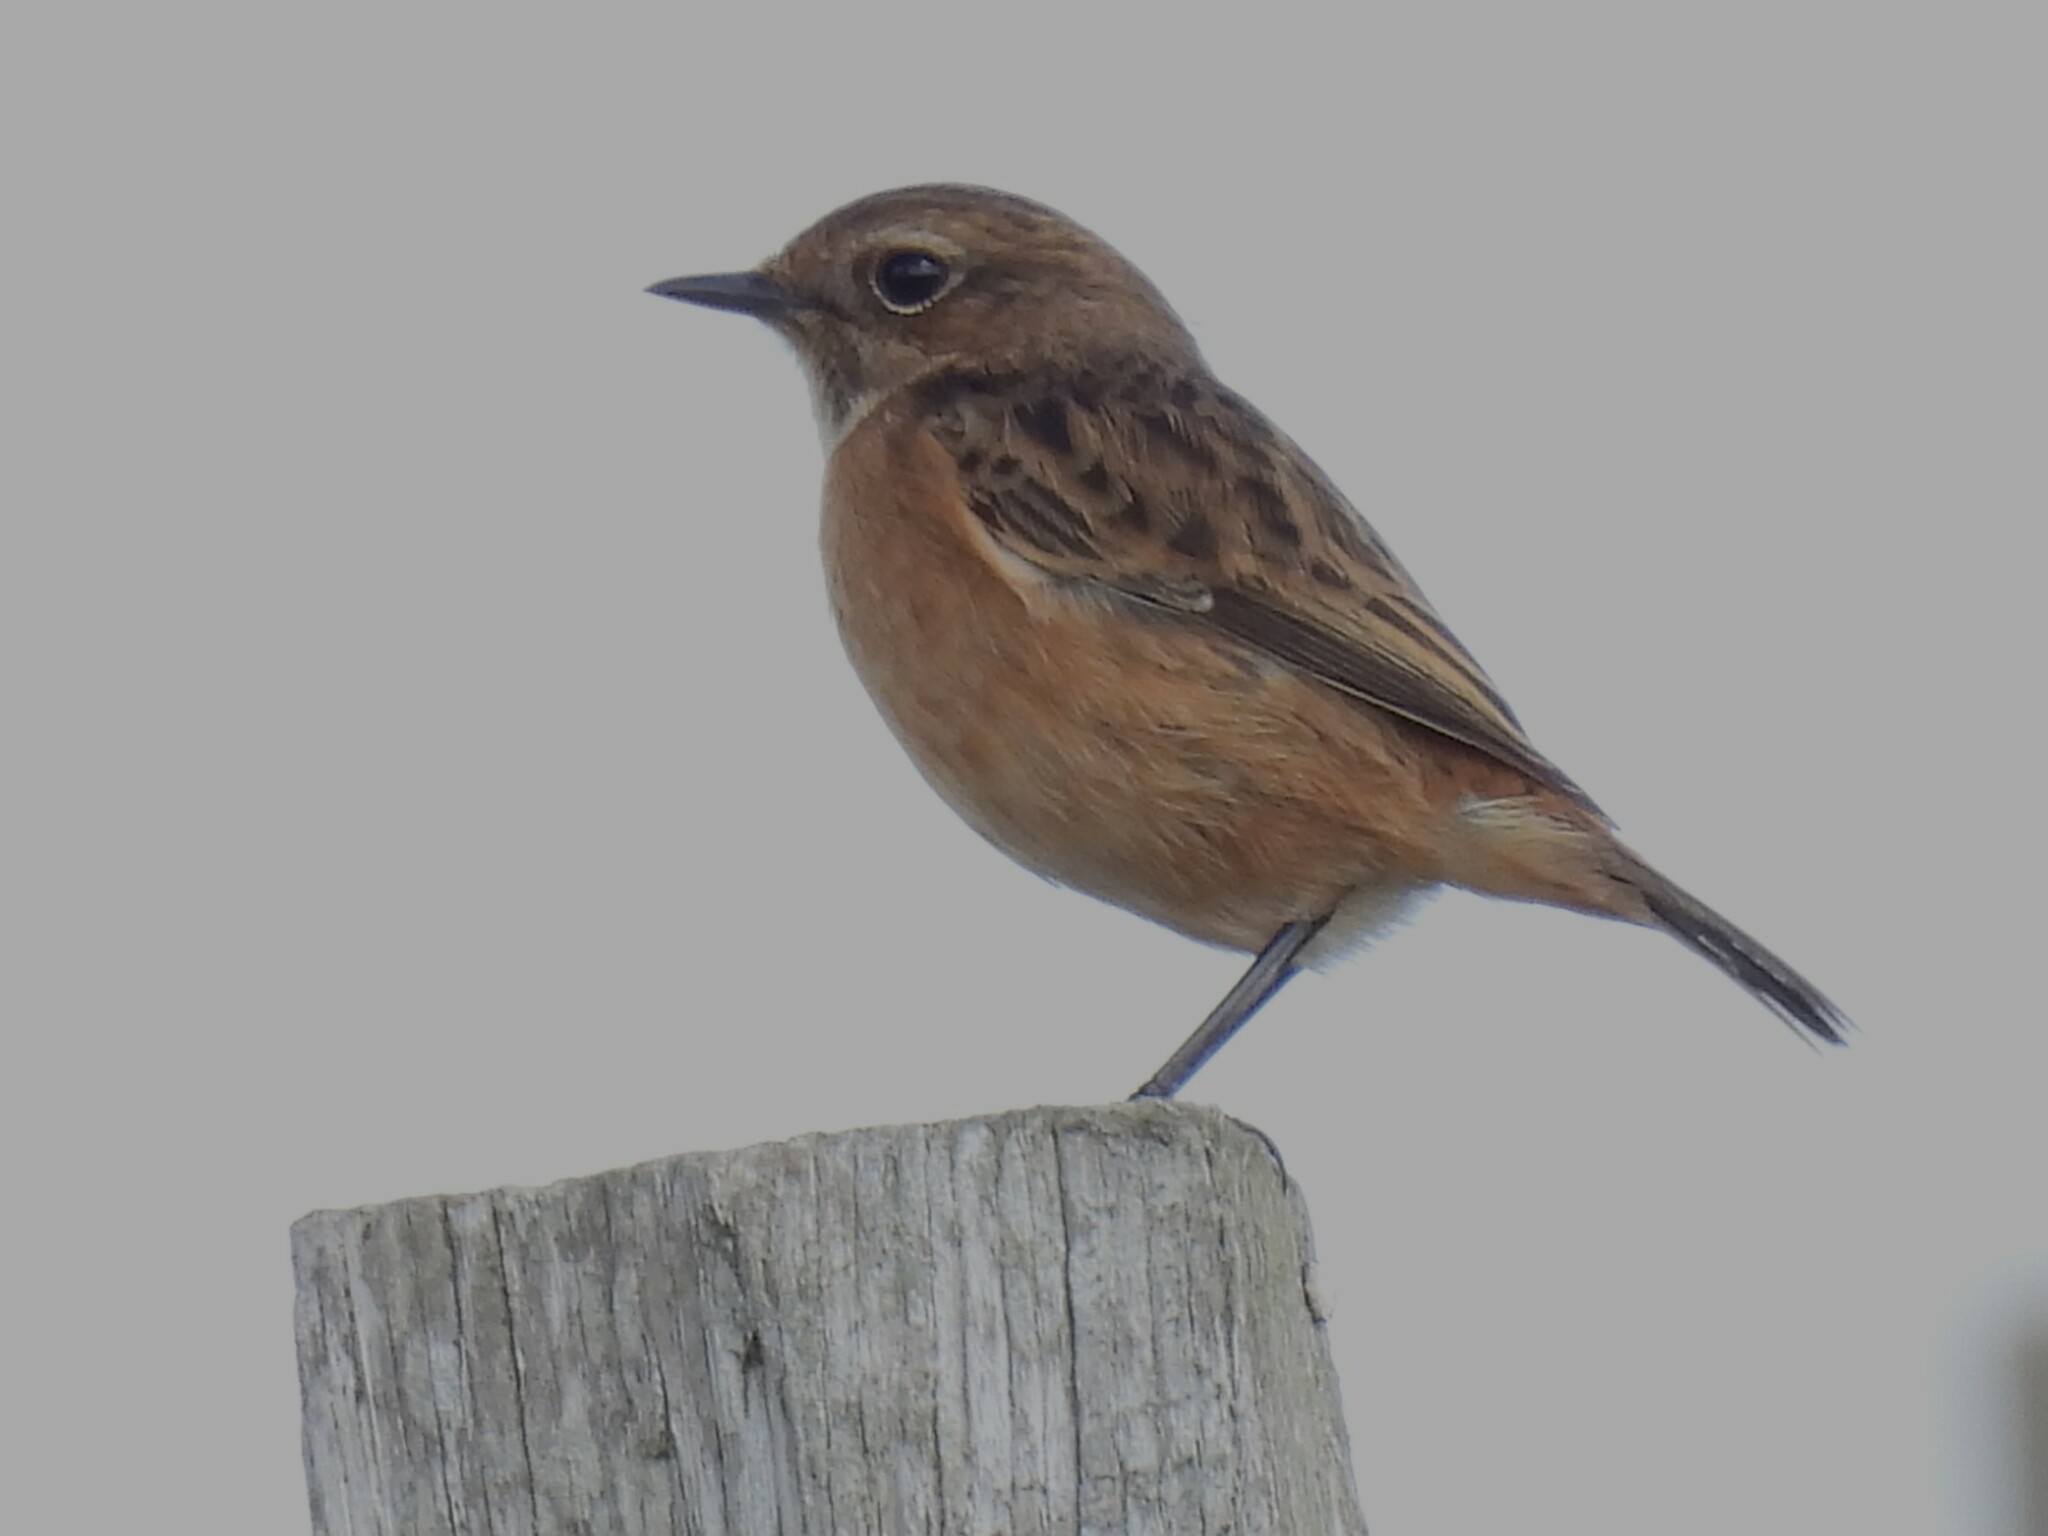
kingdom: Animalia
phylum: Chordata
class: Aves
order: Passeriformes
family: Muscicapidae
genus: Saxicola
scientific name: Saxicola rubicola
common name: European stonechat
